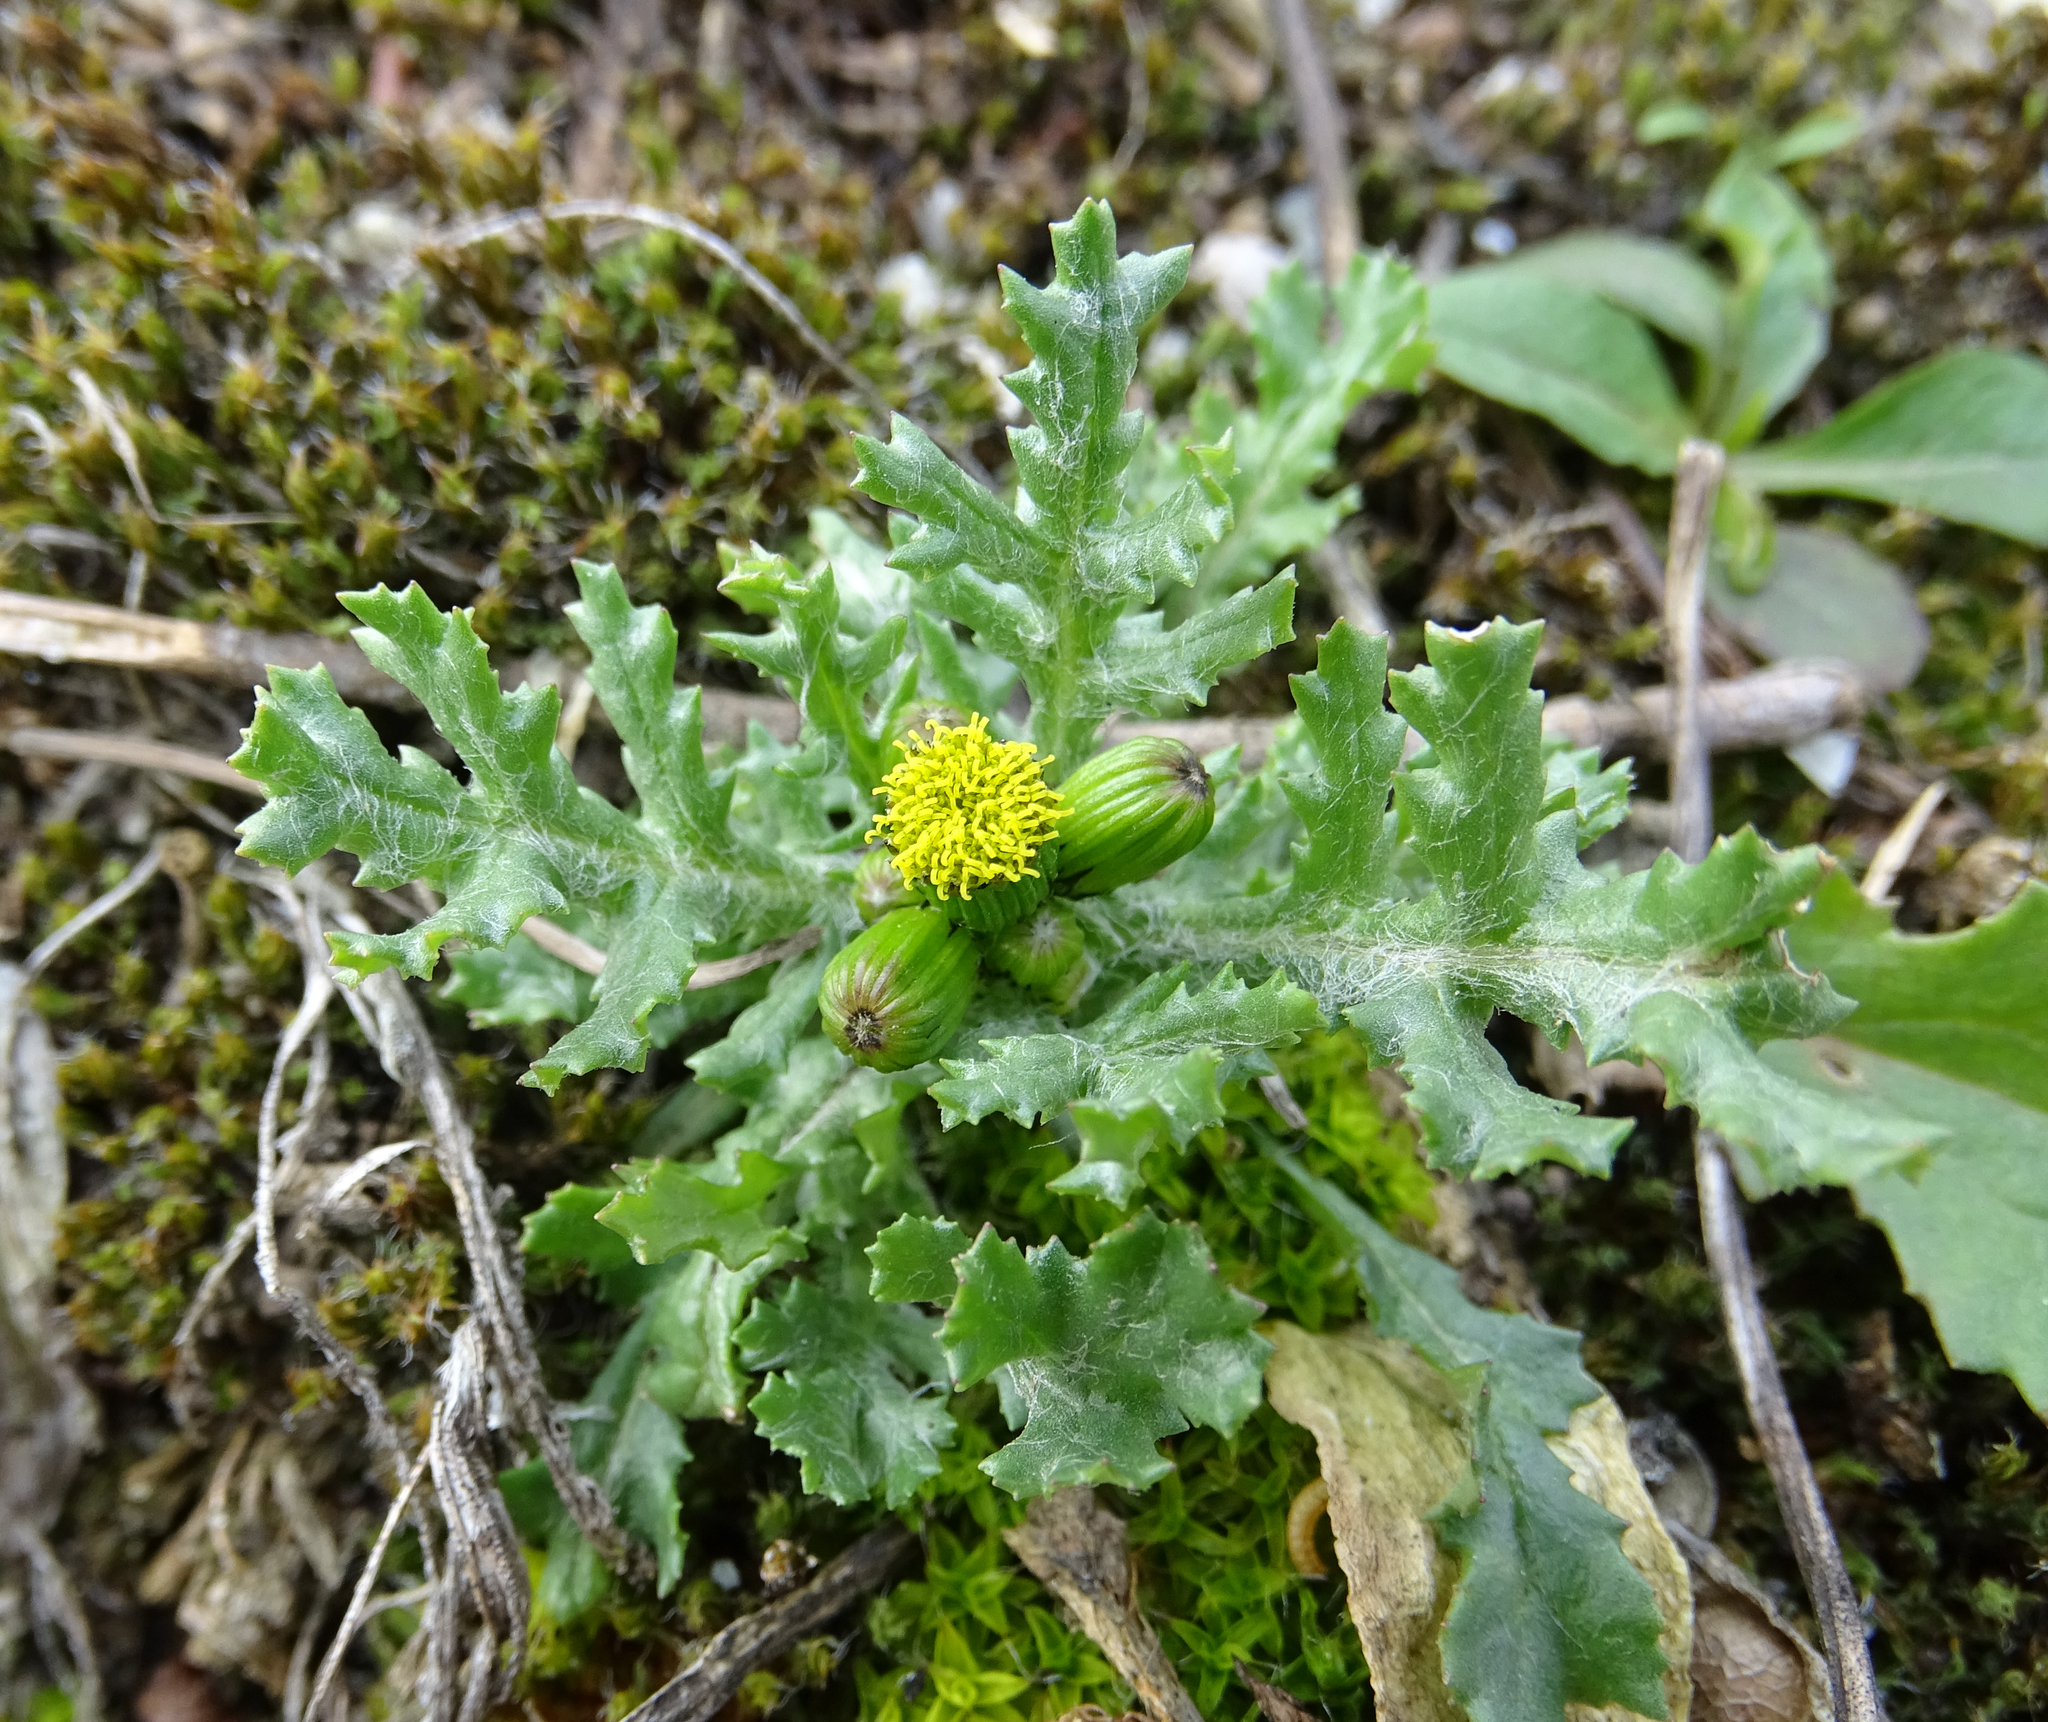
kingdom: Plantae
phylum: Tracheophyta
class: Magnoliopsida
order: Asterales
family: Asteraceae
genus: Senecio
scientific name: Senecio vulgaris
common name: Old-man-in-the-spring
